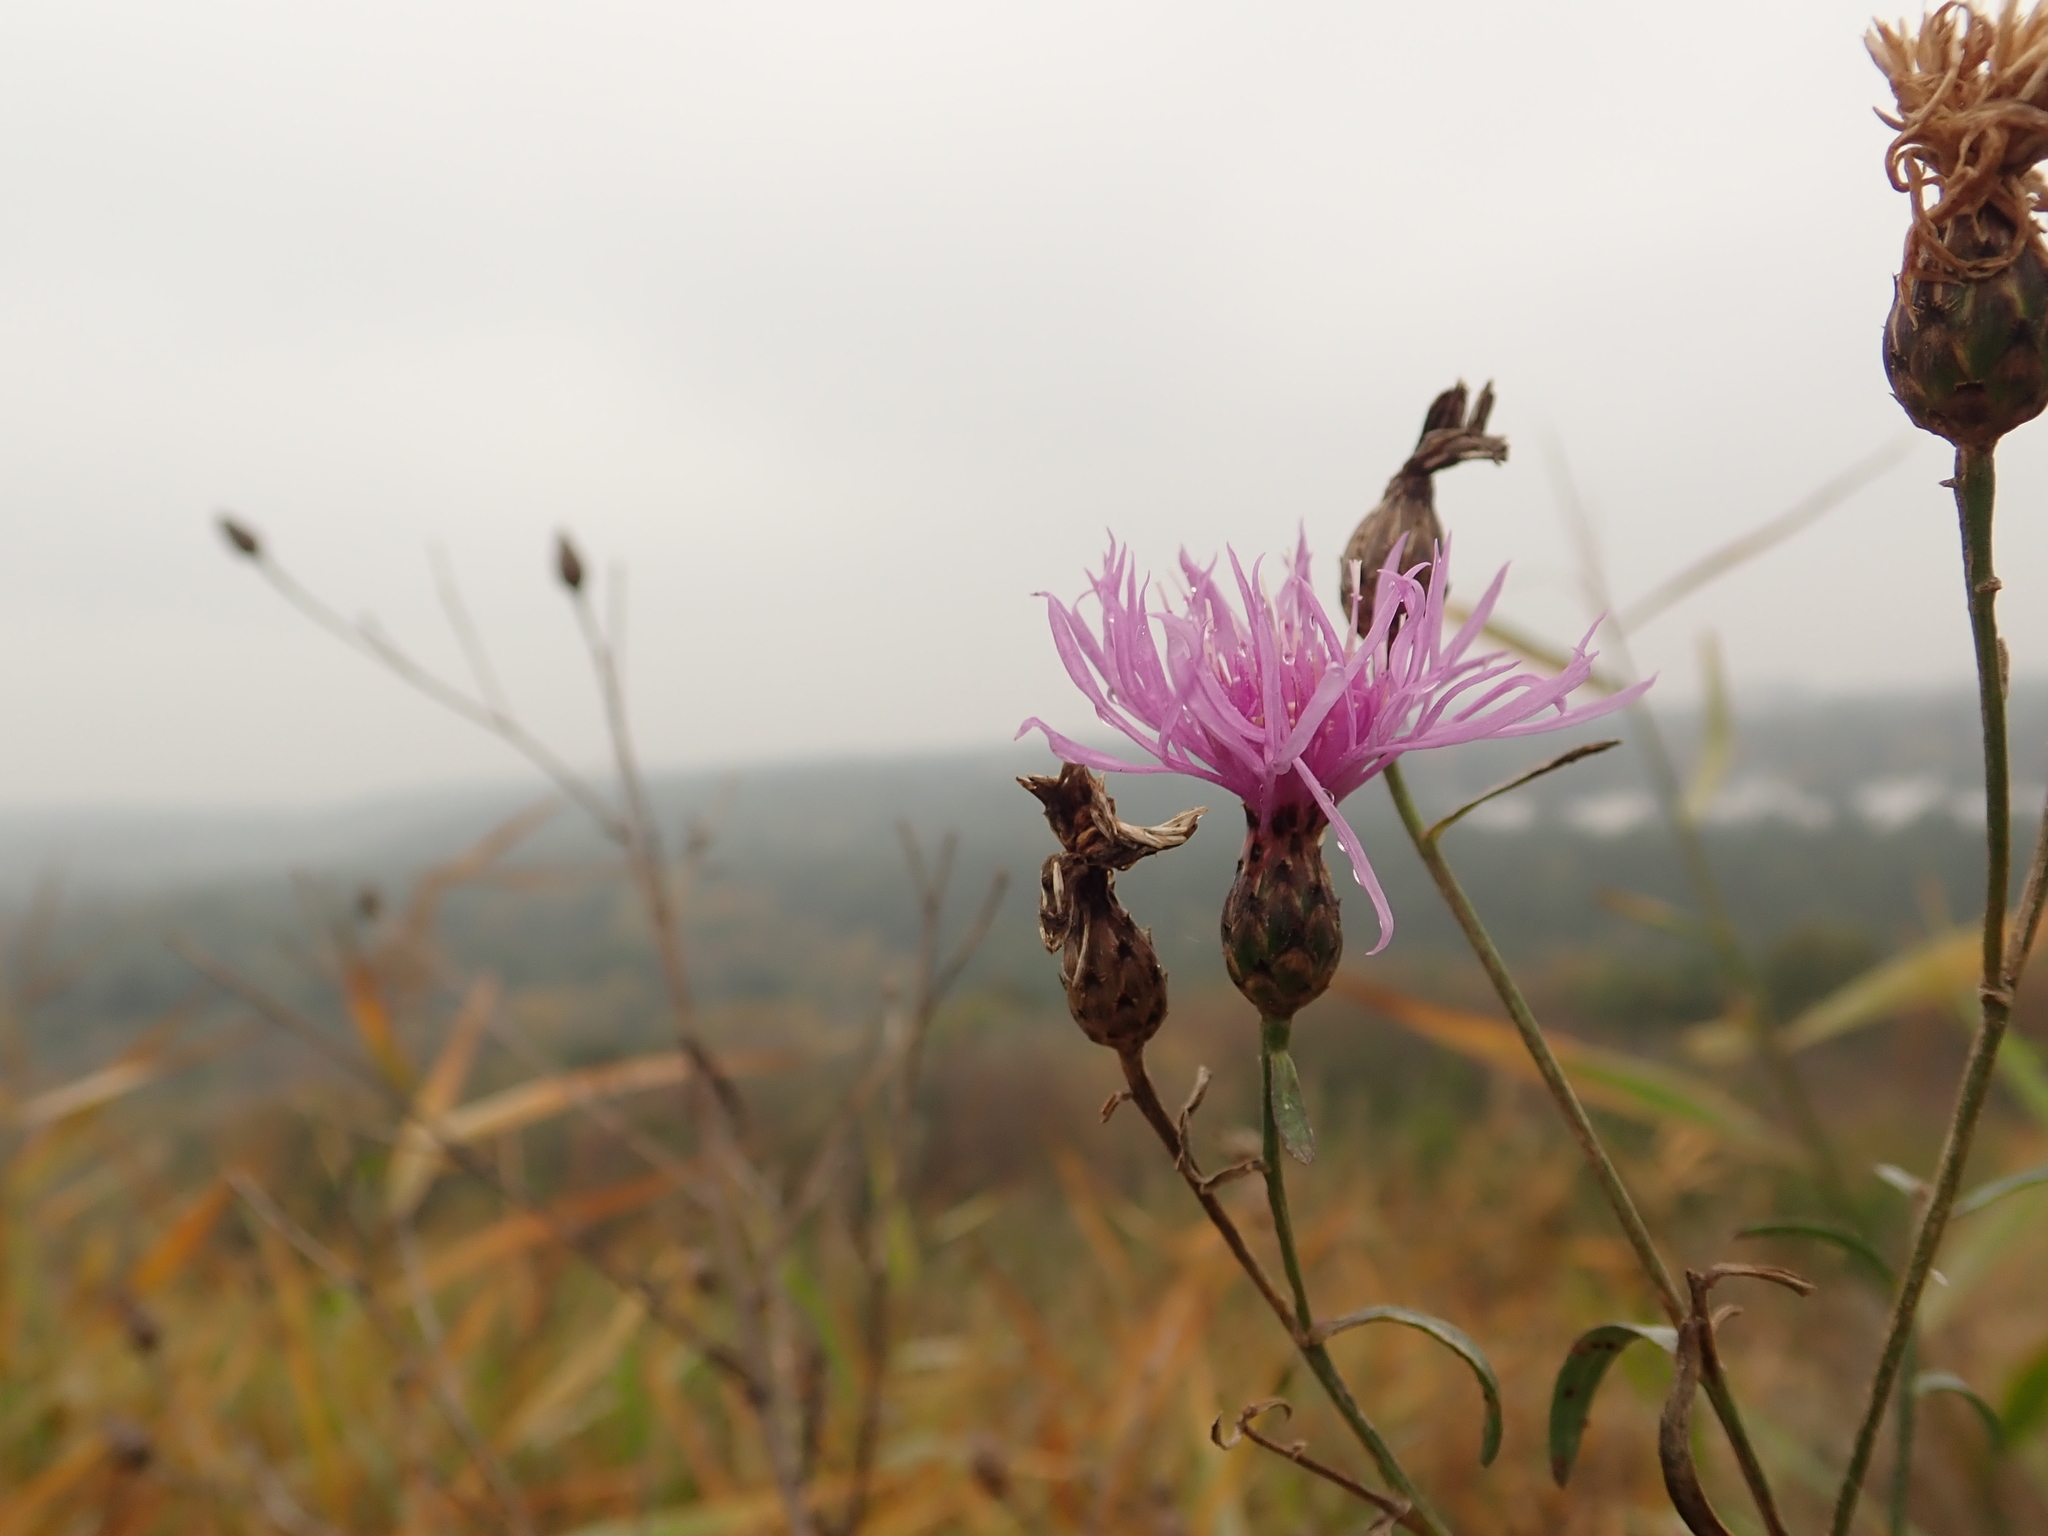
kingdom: Plantae
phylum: Tracheophyta
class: Magnoliopsida
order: Asterales
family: Asteraceae
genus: Centaurea
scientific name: Centaurea stoebe
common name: Spotted knapweed
